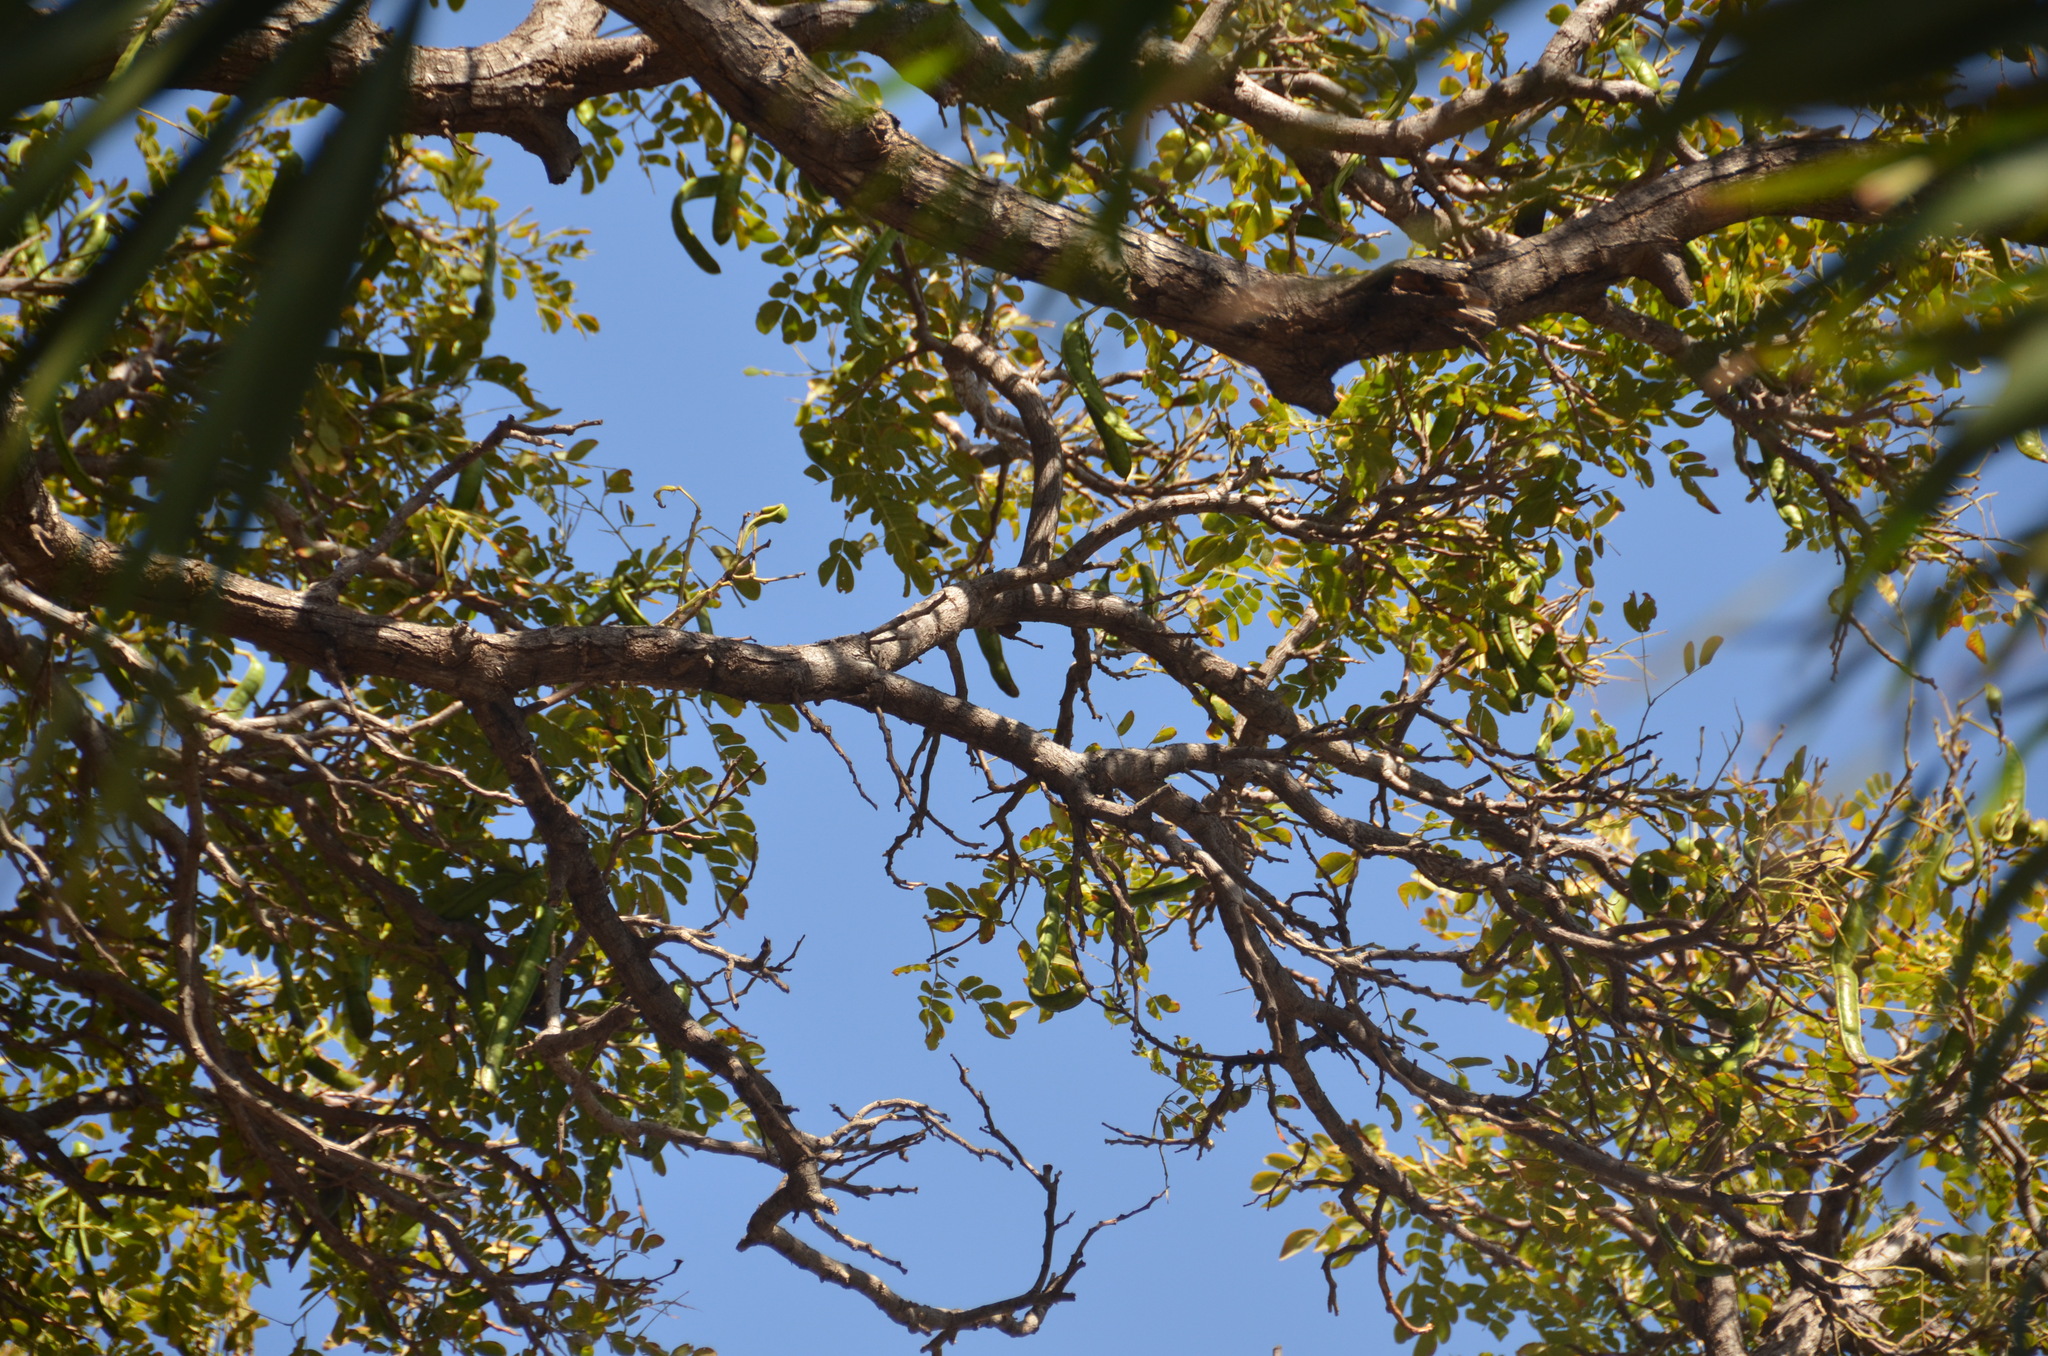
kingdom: Plantae
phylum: Tracheophyta
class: Magnoliopsida
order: Fabales
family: Fabaceae
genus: Sophora
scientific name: Sophora chrysophylla
